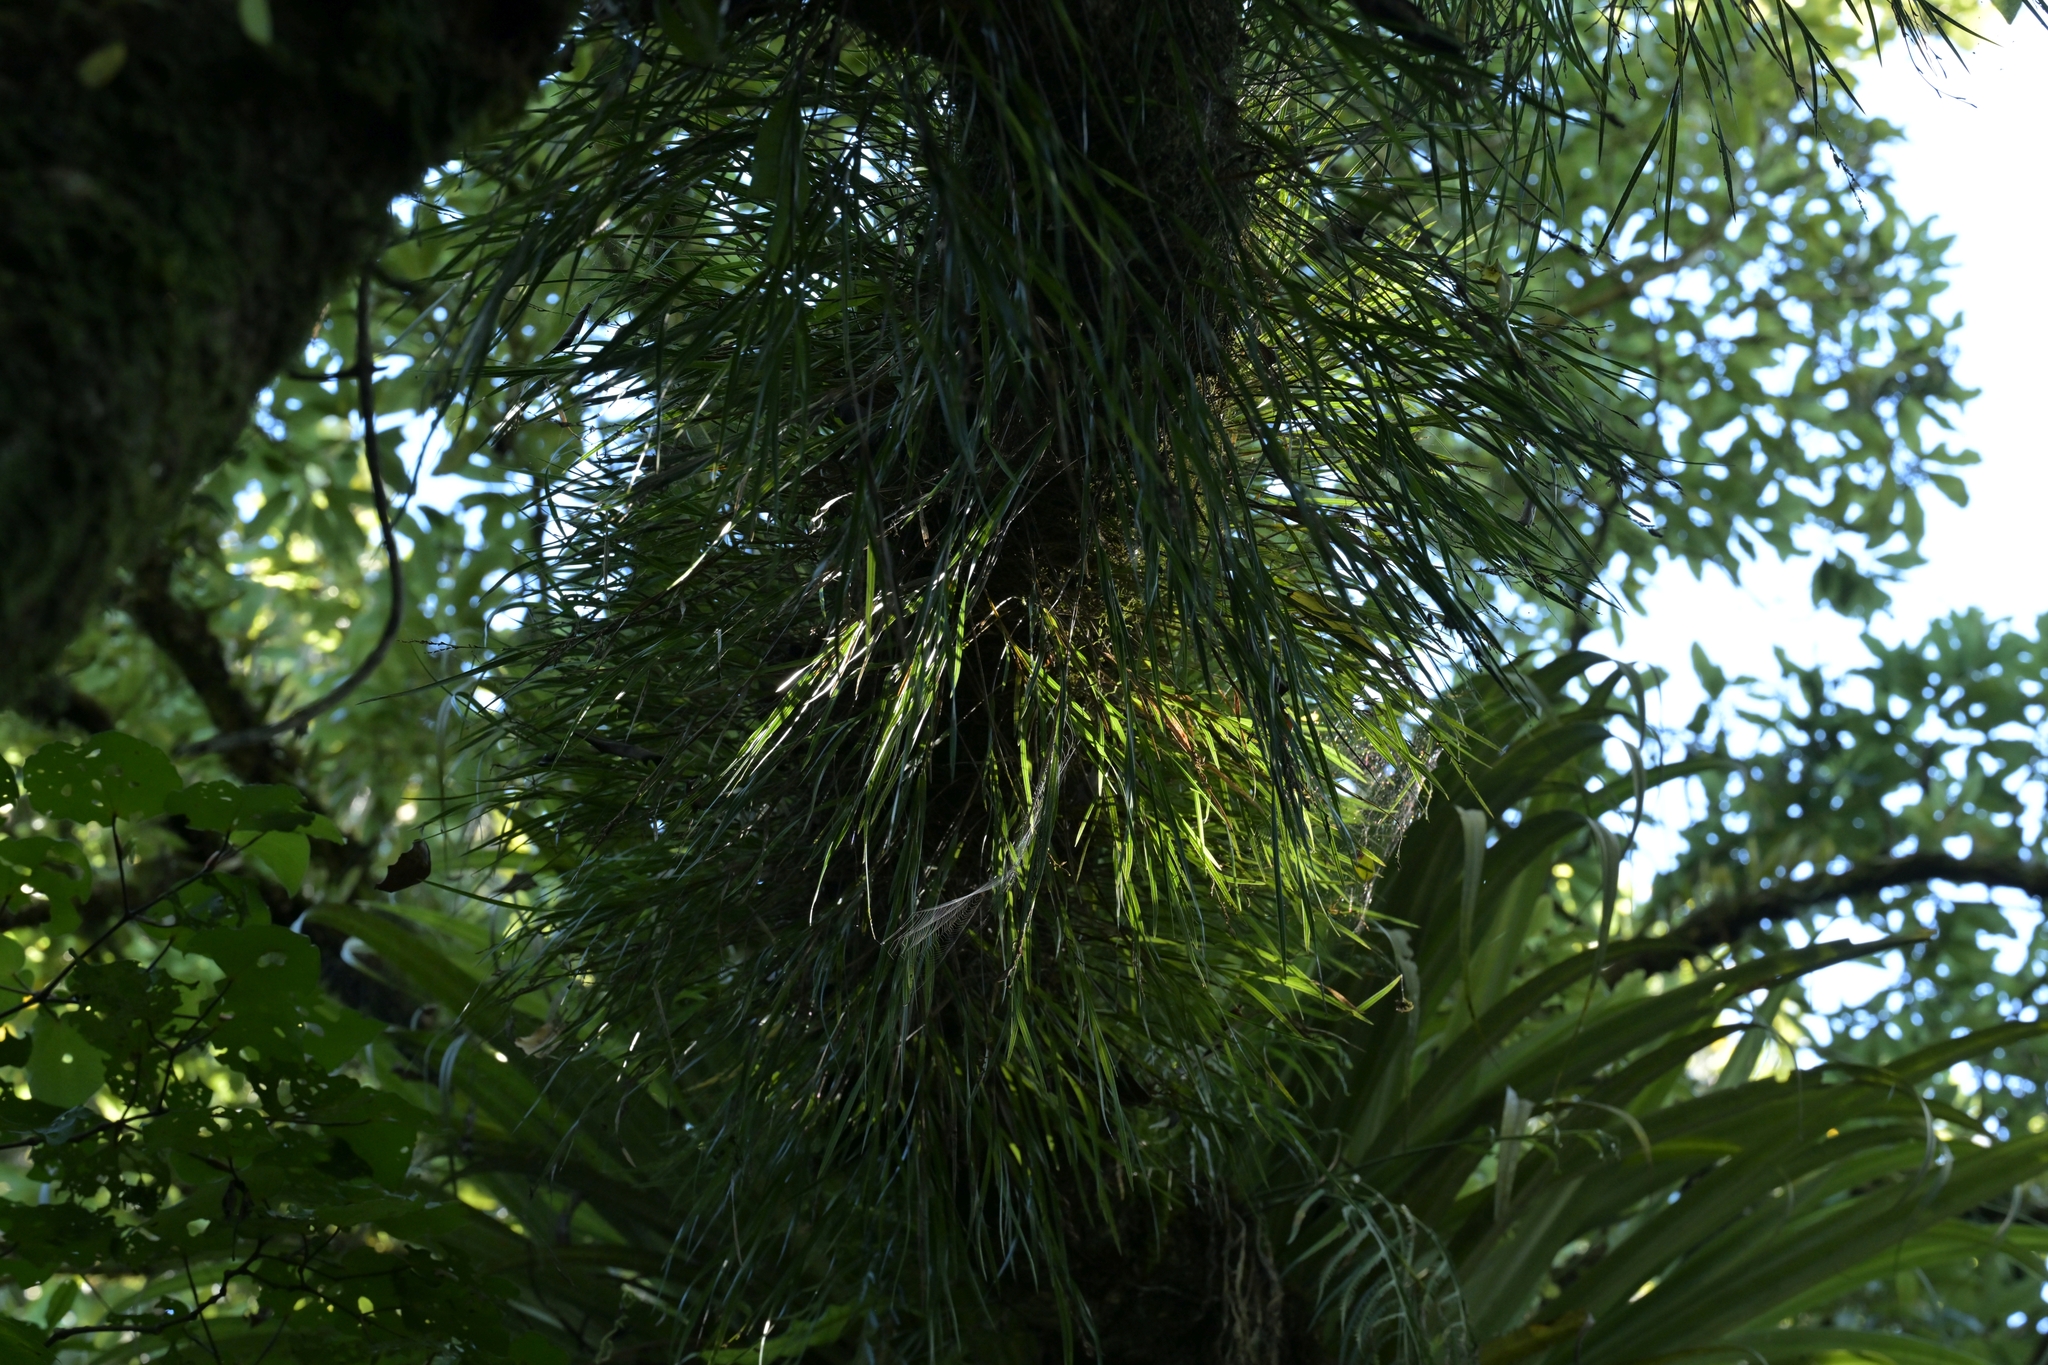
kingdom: Plantae
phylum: Tracheophyta
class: Liliopsida
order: Asparagales
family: Orchidaceae
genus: Earina
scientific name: Earina mucronata
